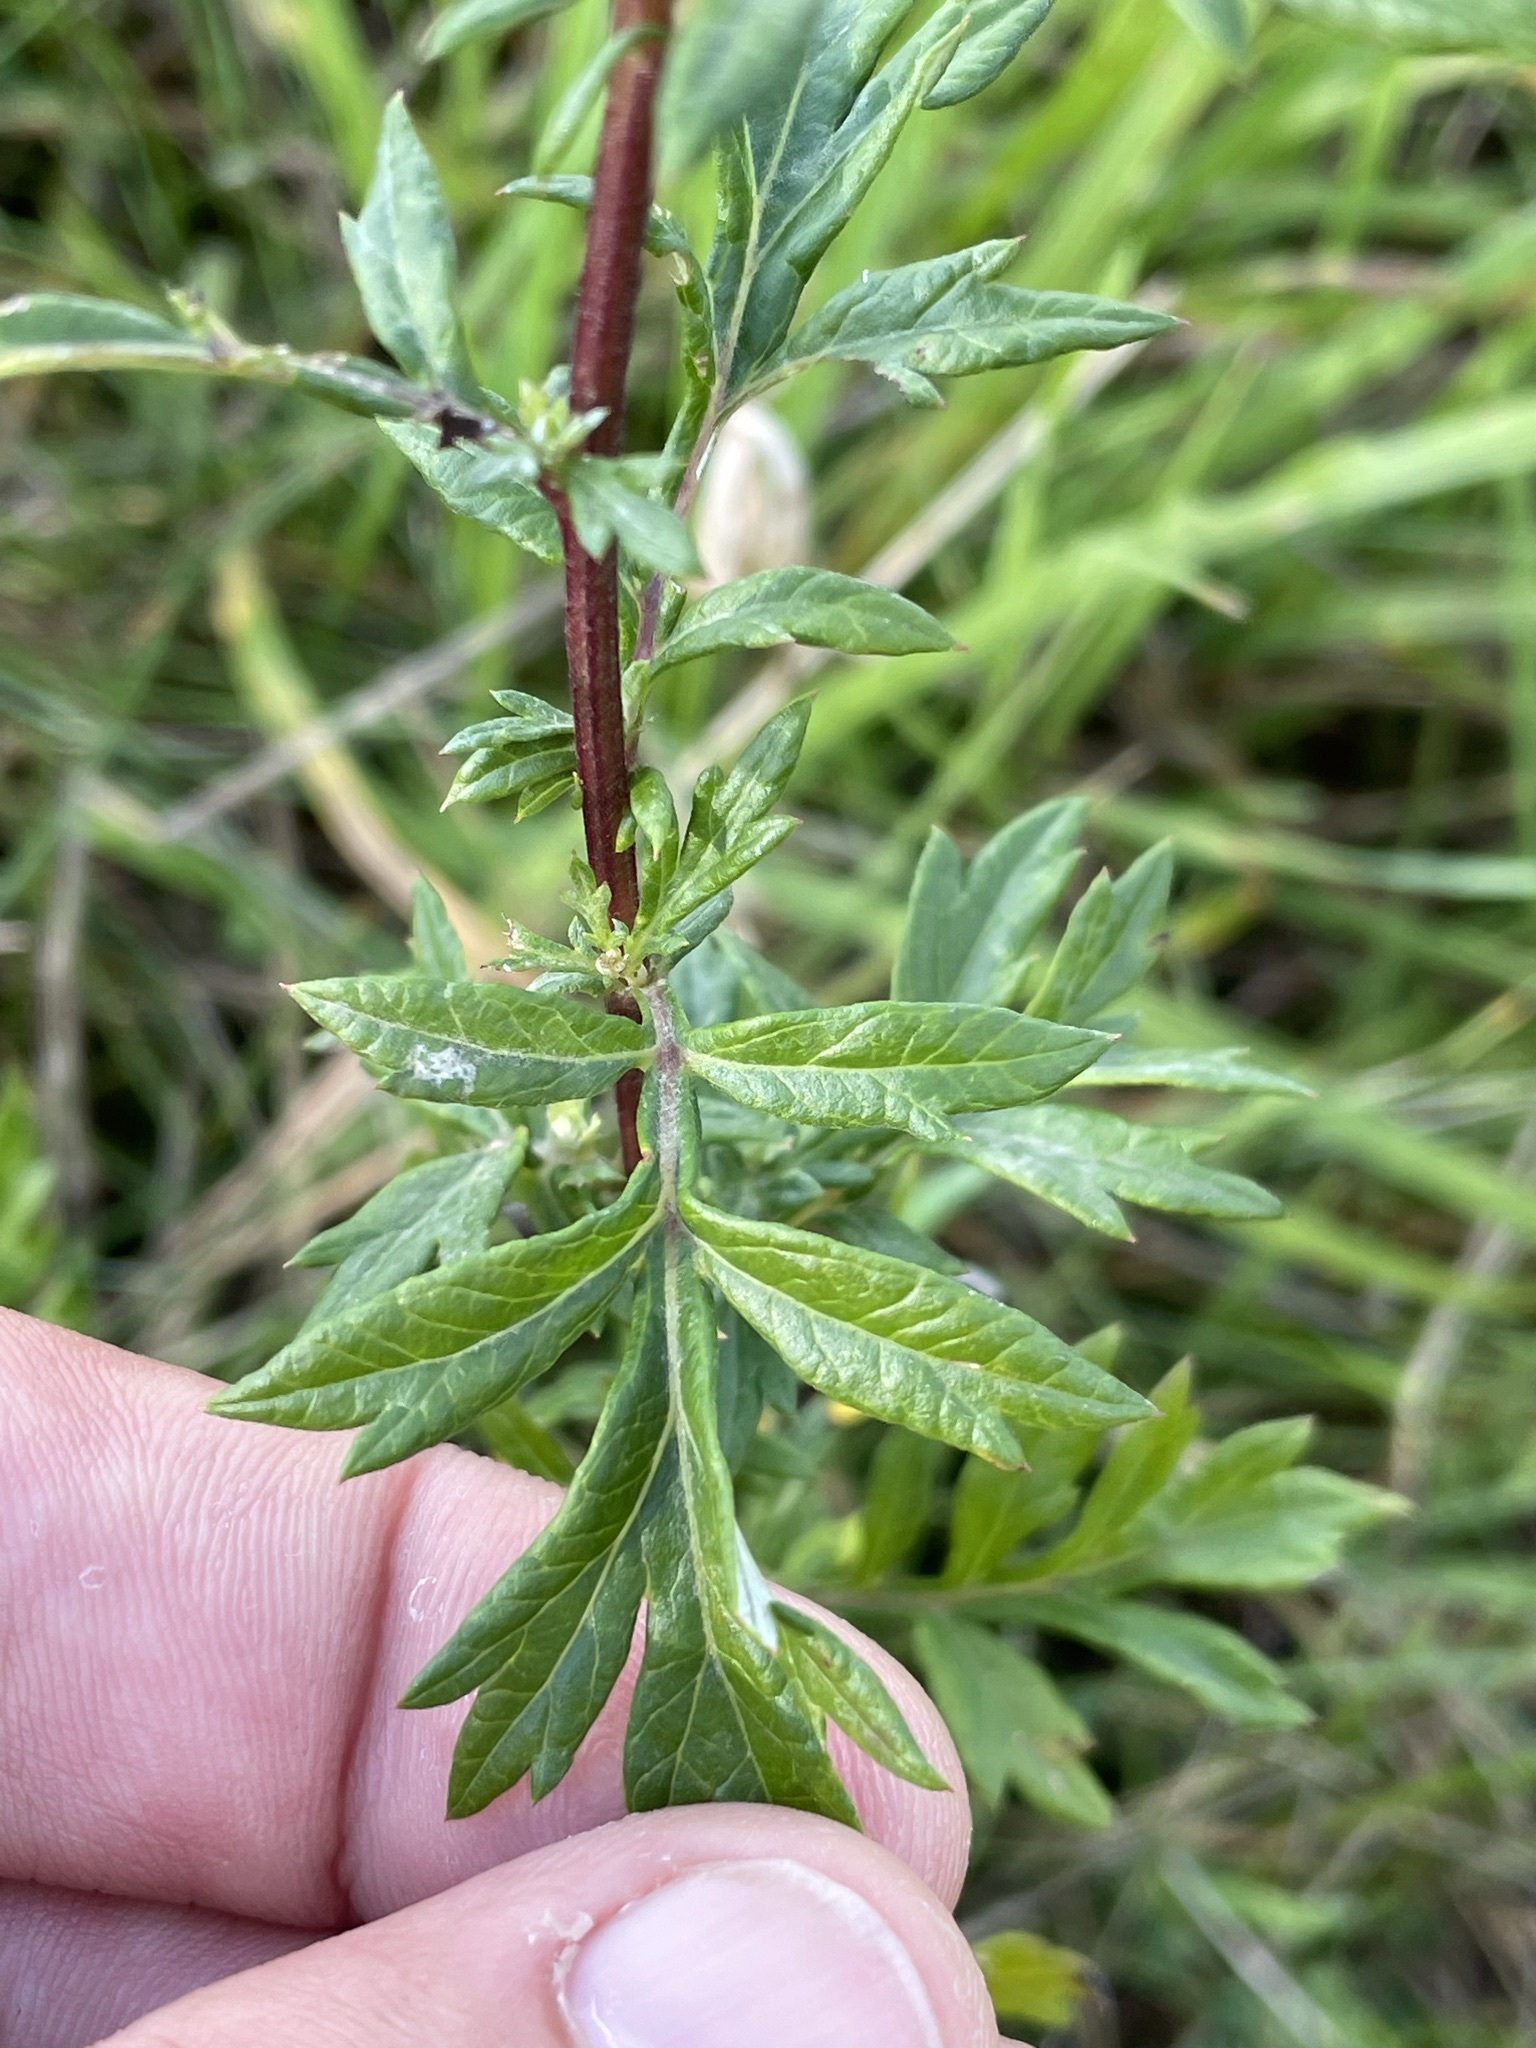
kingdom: Plantae
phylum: Tracheophyta
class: Magnoliopsida
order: Asterales
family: Asteraceae
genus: Artemisia
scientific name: Artemisia vulgaris
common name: Mugwort
